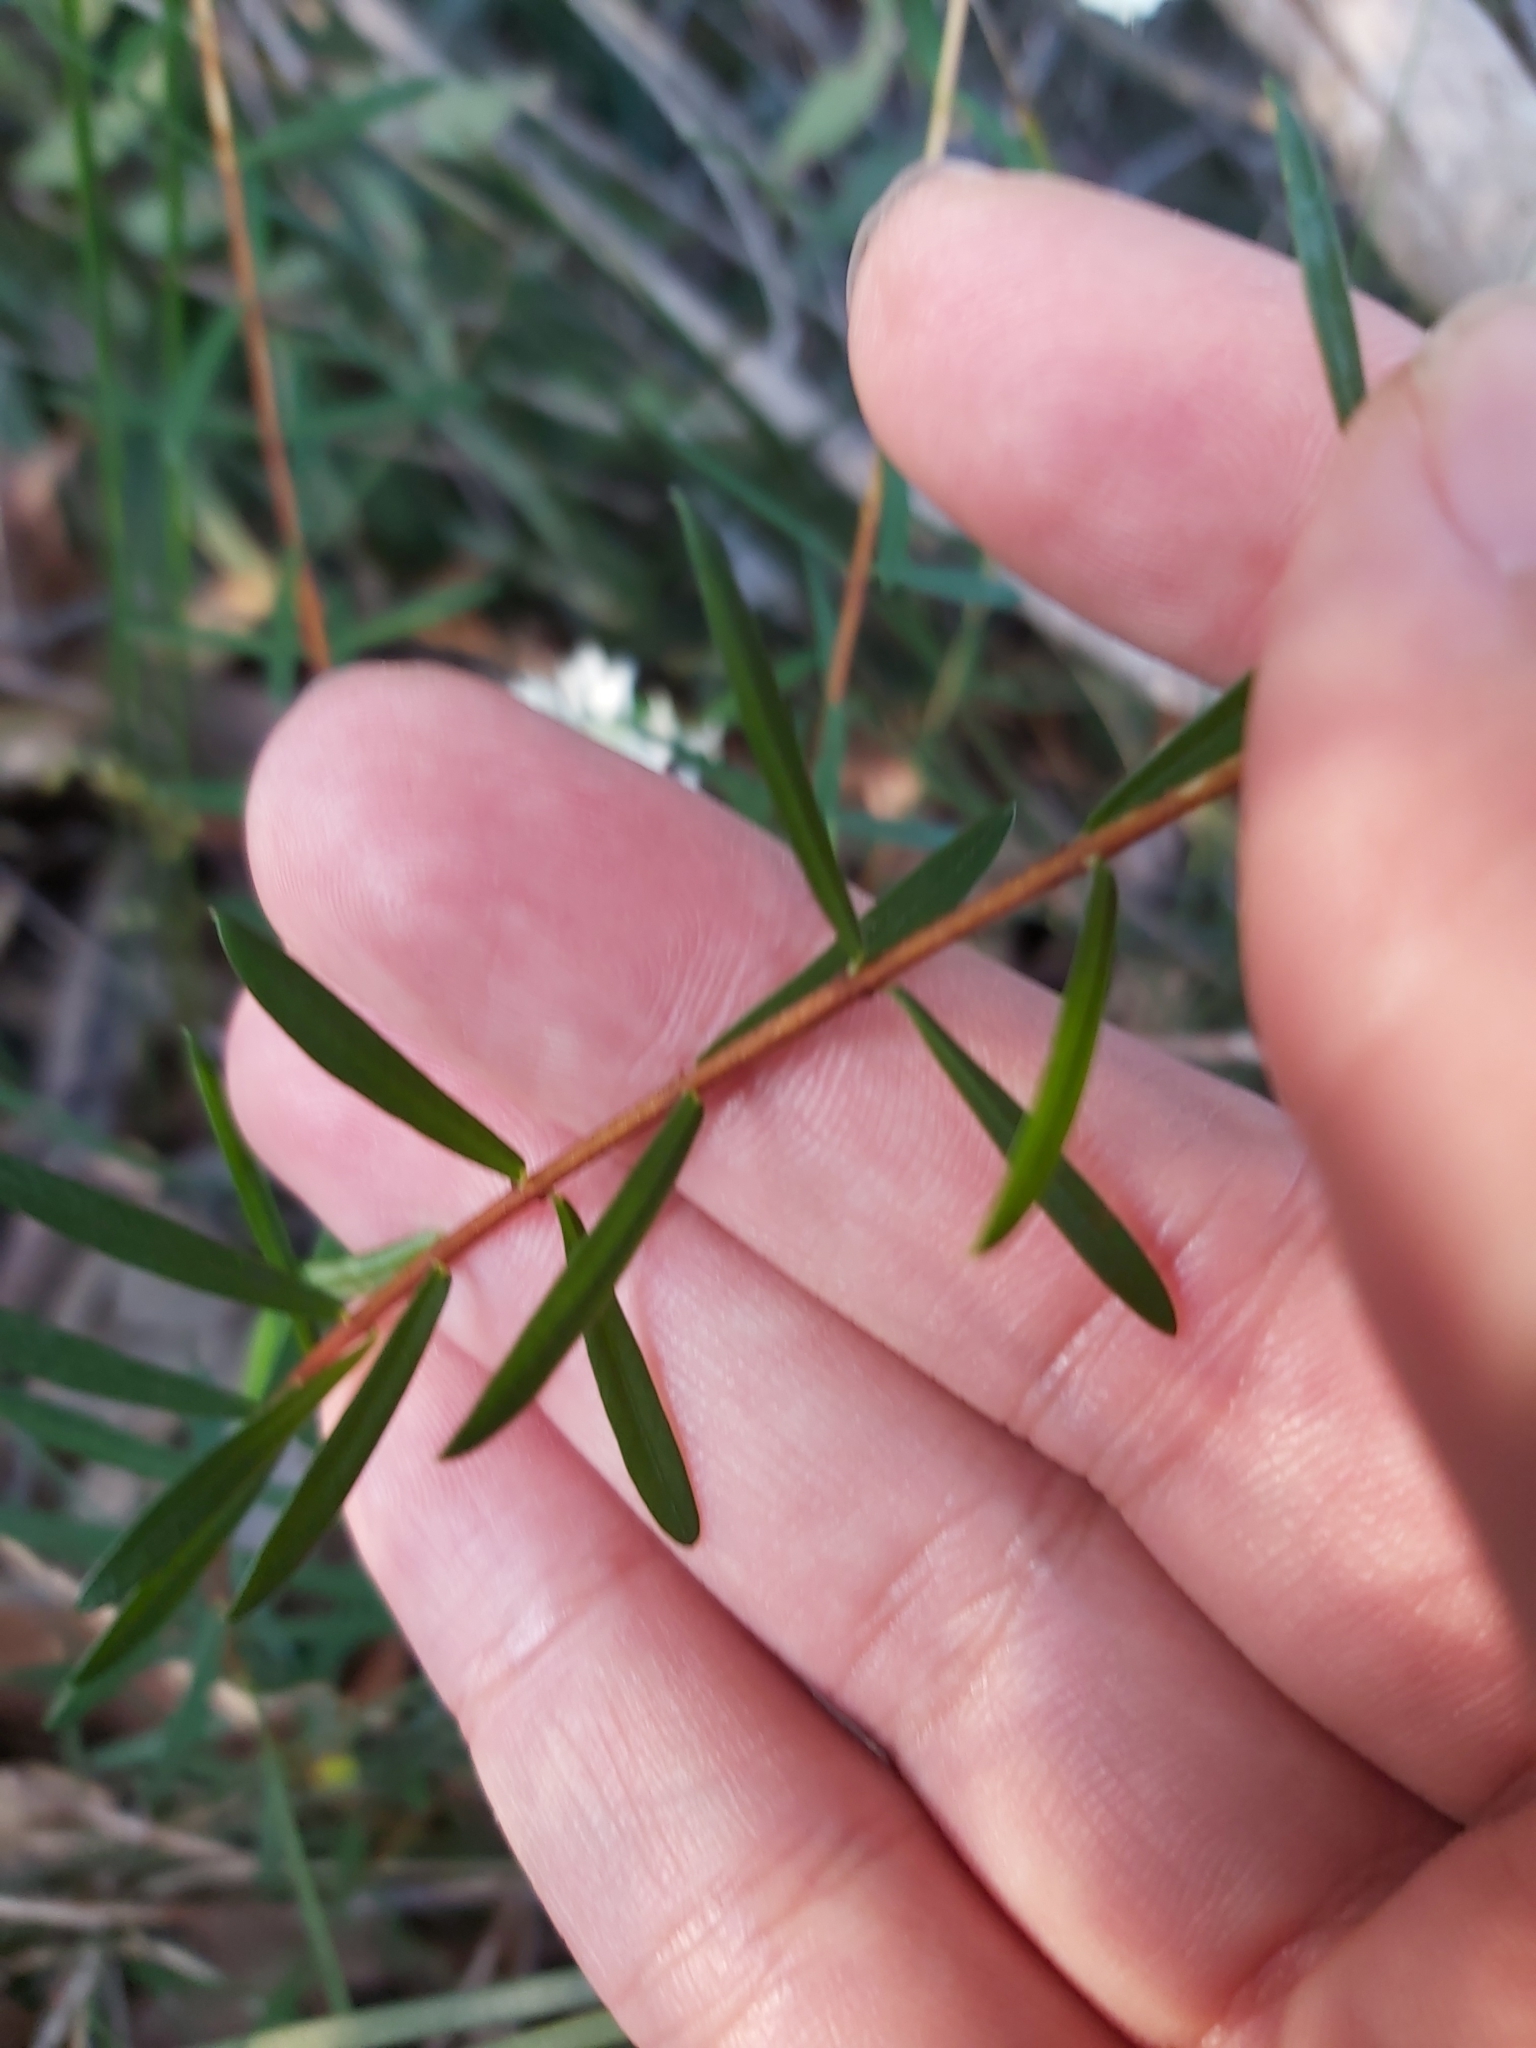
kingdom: Plantae
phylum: Tracheophyta
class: Magnoliopsida
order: Malvales
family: Thymelaeaceae
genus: Pimelea
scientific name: Pimelea linifolia
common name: Queen-of-the-bush
